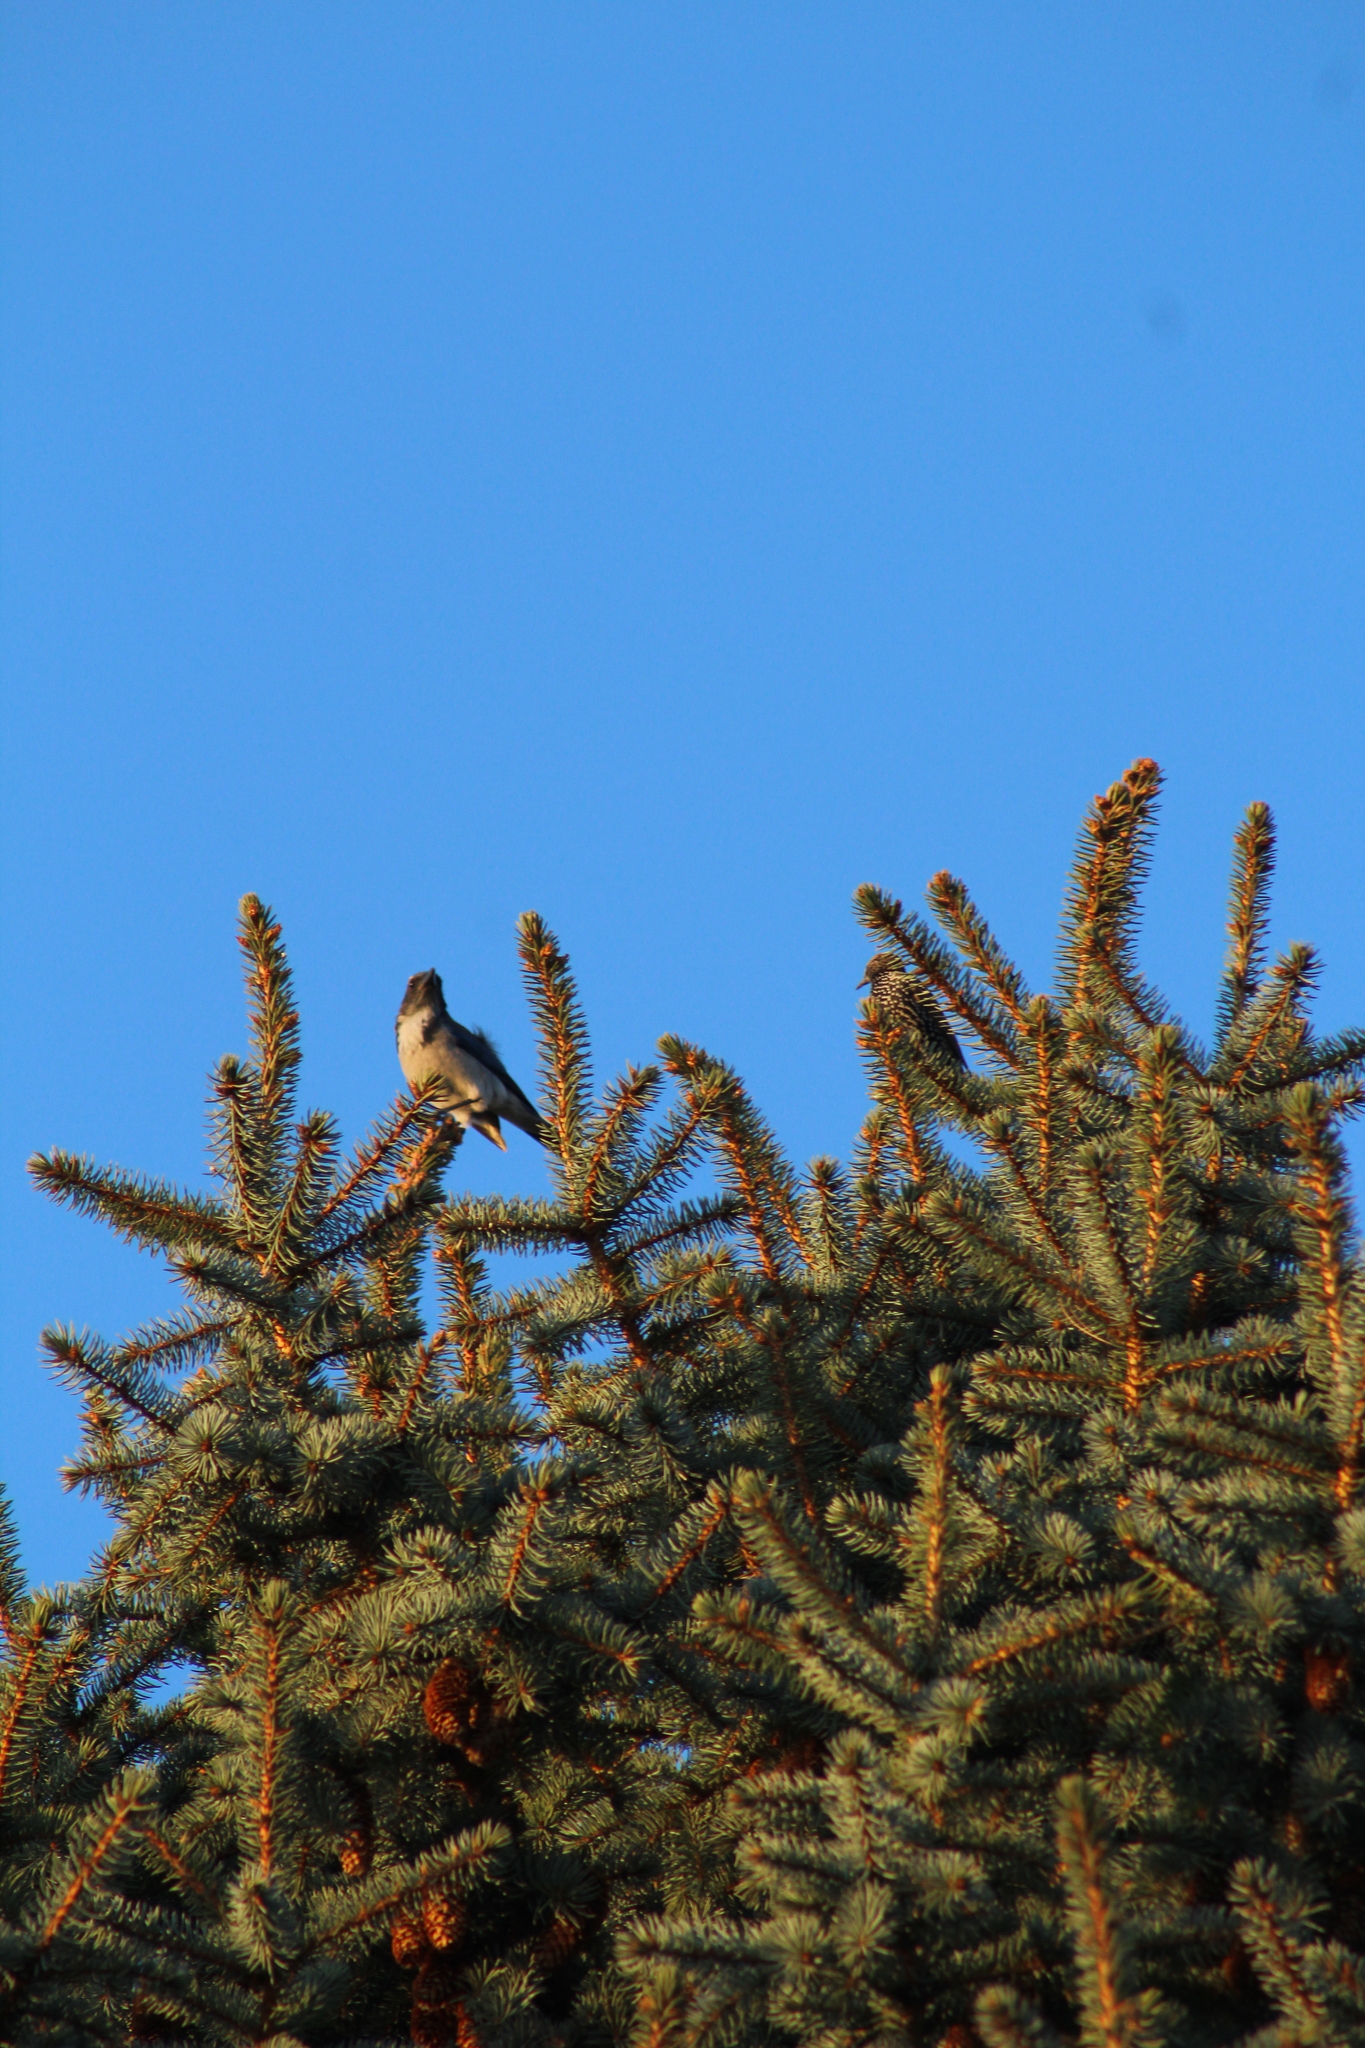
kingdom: Animalia
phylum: Chordata
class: Aves
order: Passeriformes
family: Corvidae
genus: Aphelocoma
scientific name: Aphelocoma californica
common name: California scrub-jay
